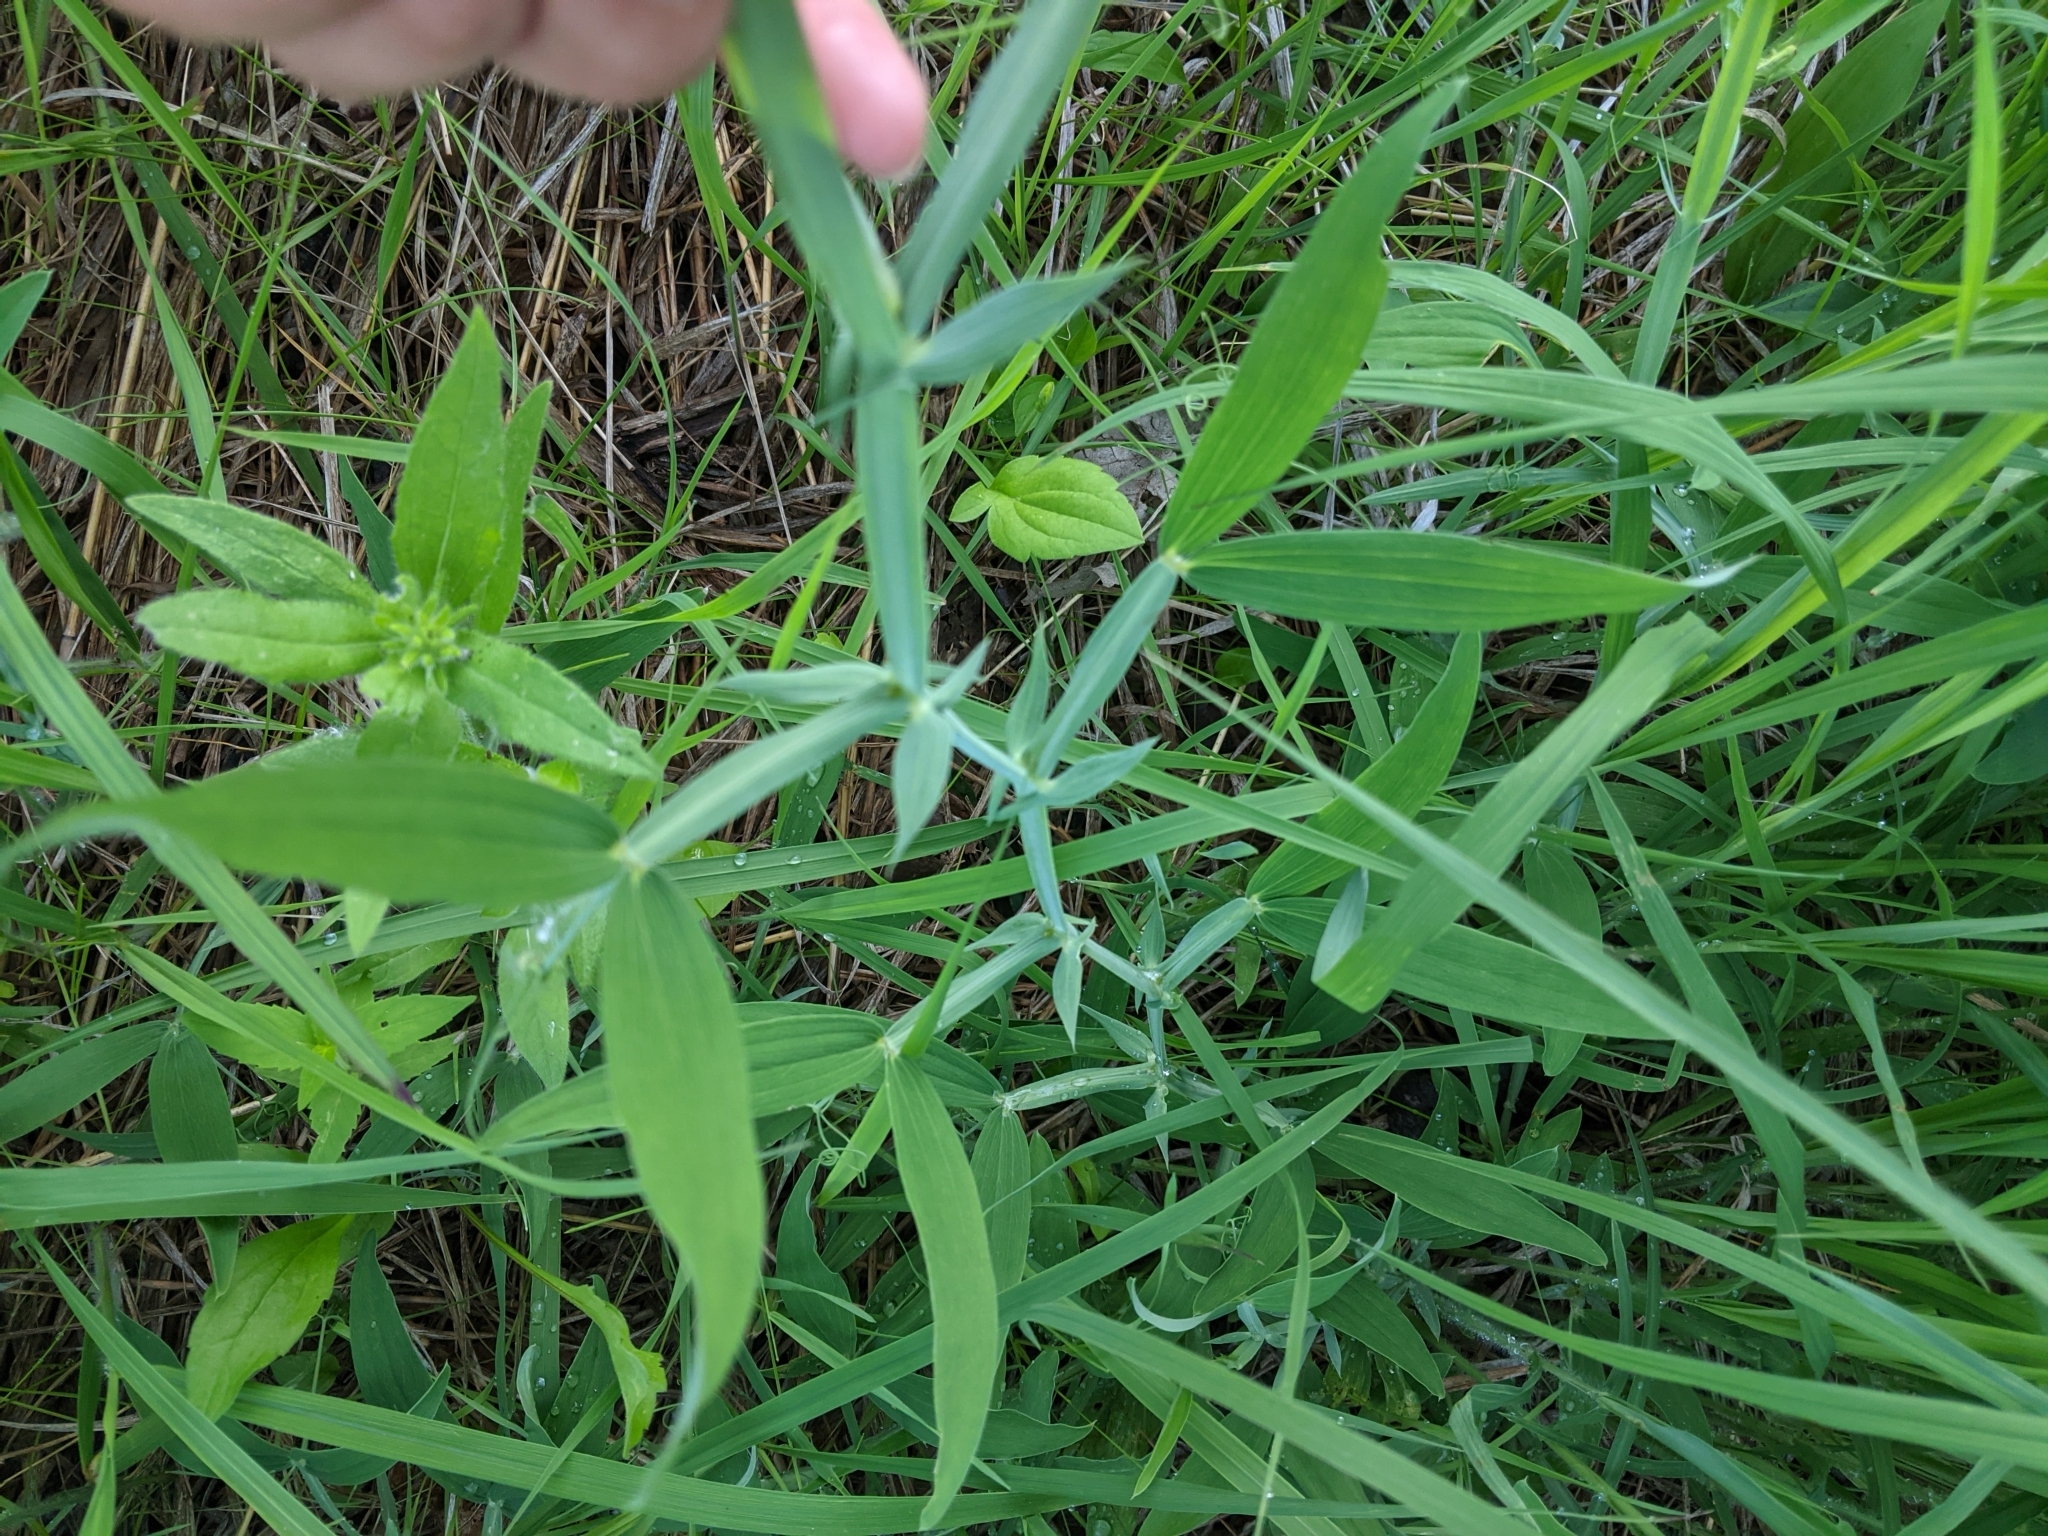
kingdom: Plantae
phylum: Tracheophyta
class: Magnoliopsida
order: Fabales
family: Fabaceae
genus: Lathyrus
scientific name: Lathyrus latifolius
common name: Perennial pea
